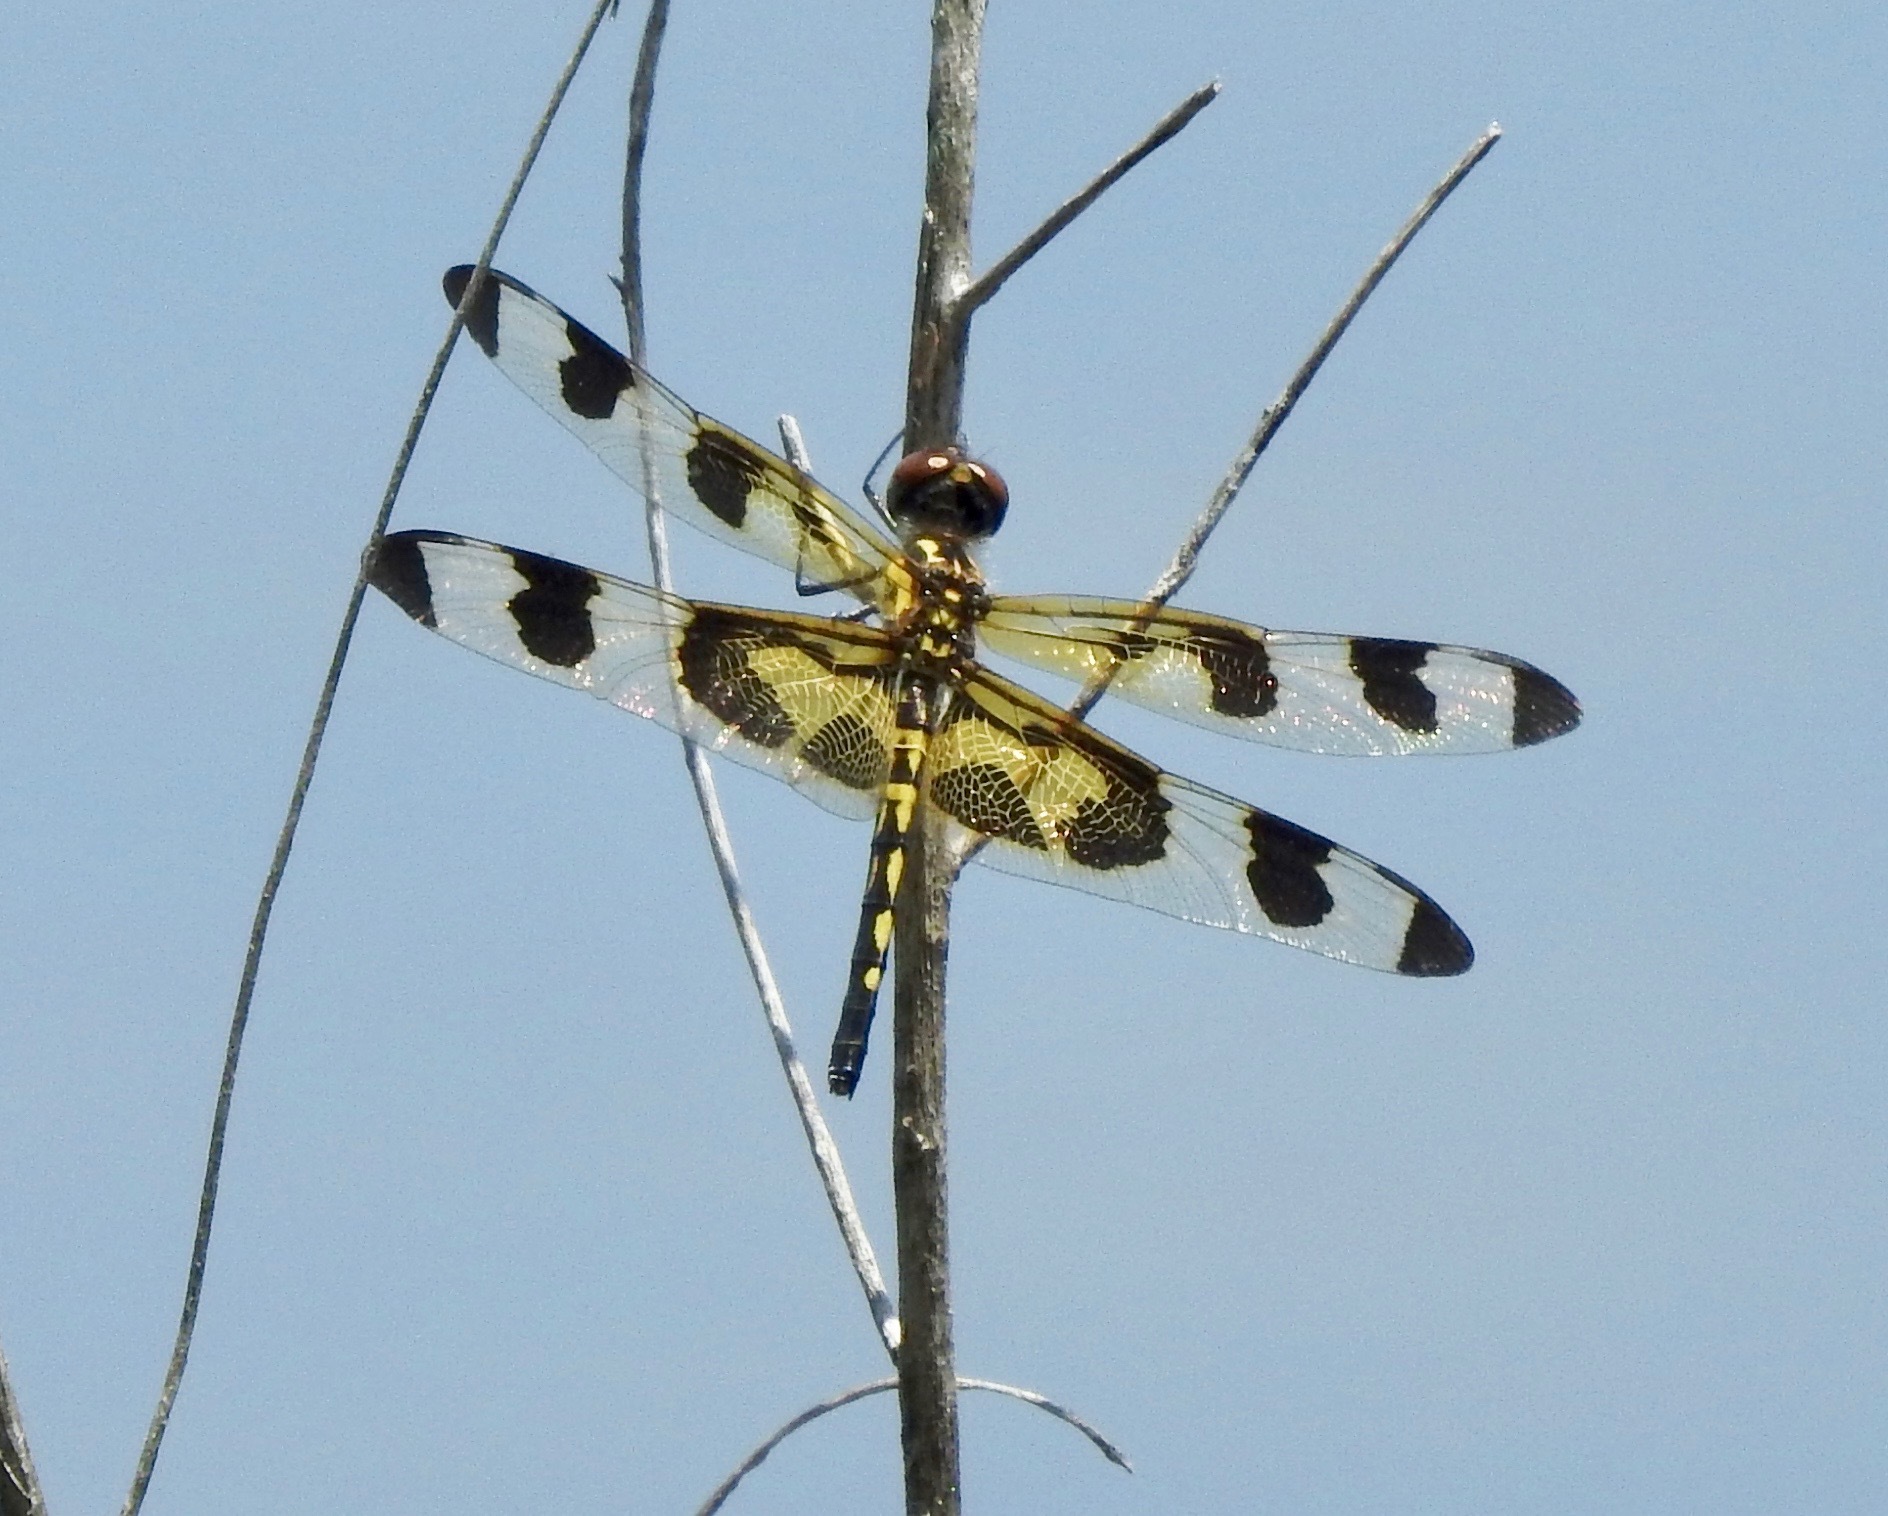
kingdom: Animalia
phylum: Arthropoda
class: Insecta
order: Odonata
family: Libellulidae
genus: Celithemis
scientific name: Celithemis fasciata
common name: Banded pennant
